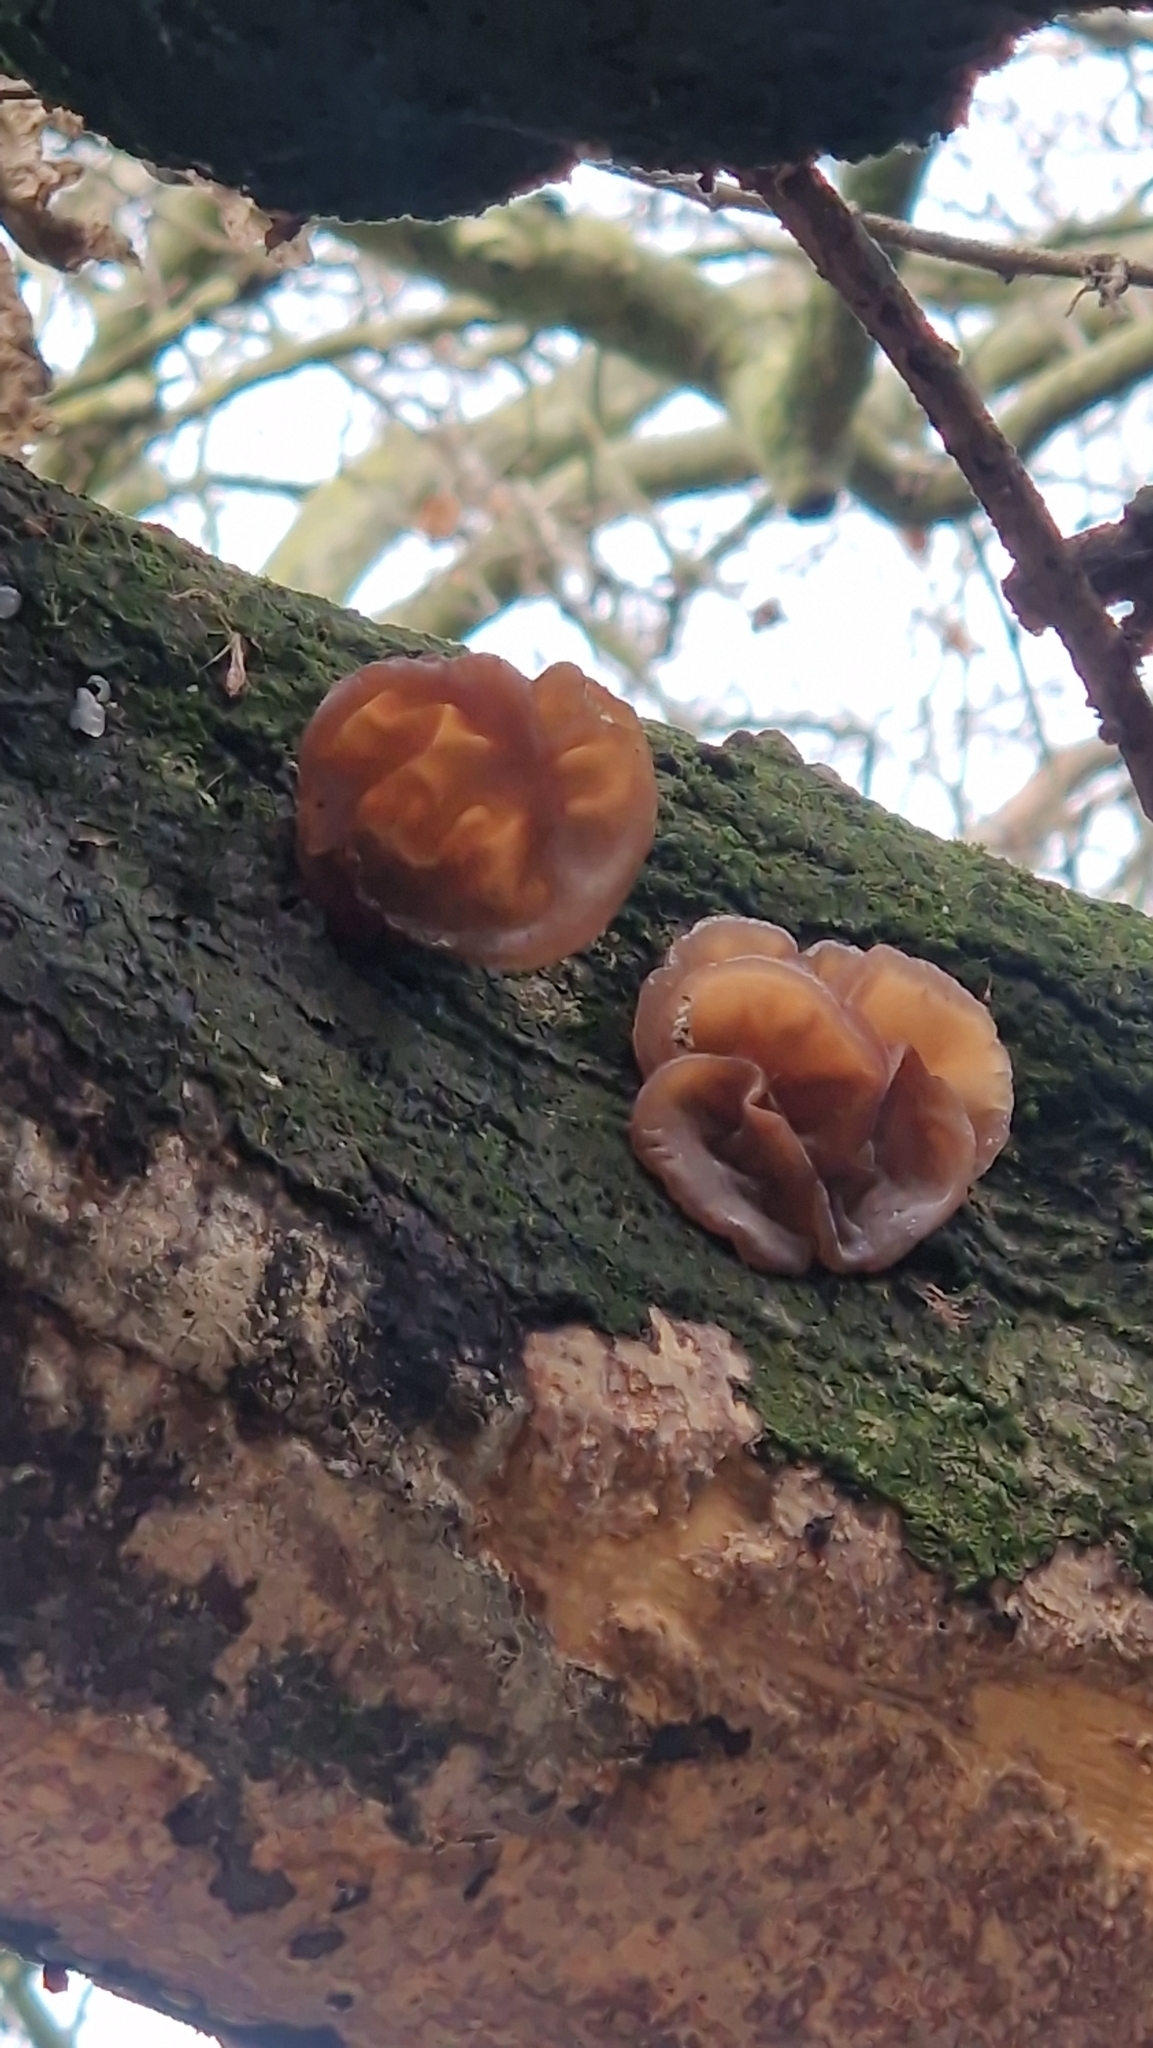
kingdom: Fungi
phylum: Basidiomycota
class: Agaricomycetes
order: Auriculariales
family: Auriculariaceae
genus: Auricularia
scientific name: Auricularia auricula-judae
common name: Jelly ear
